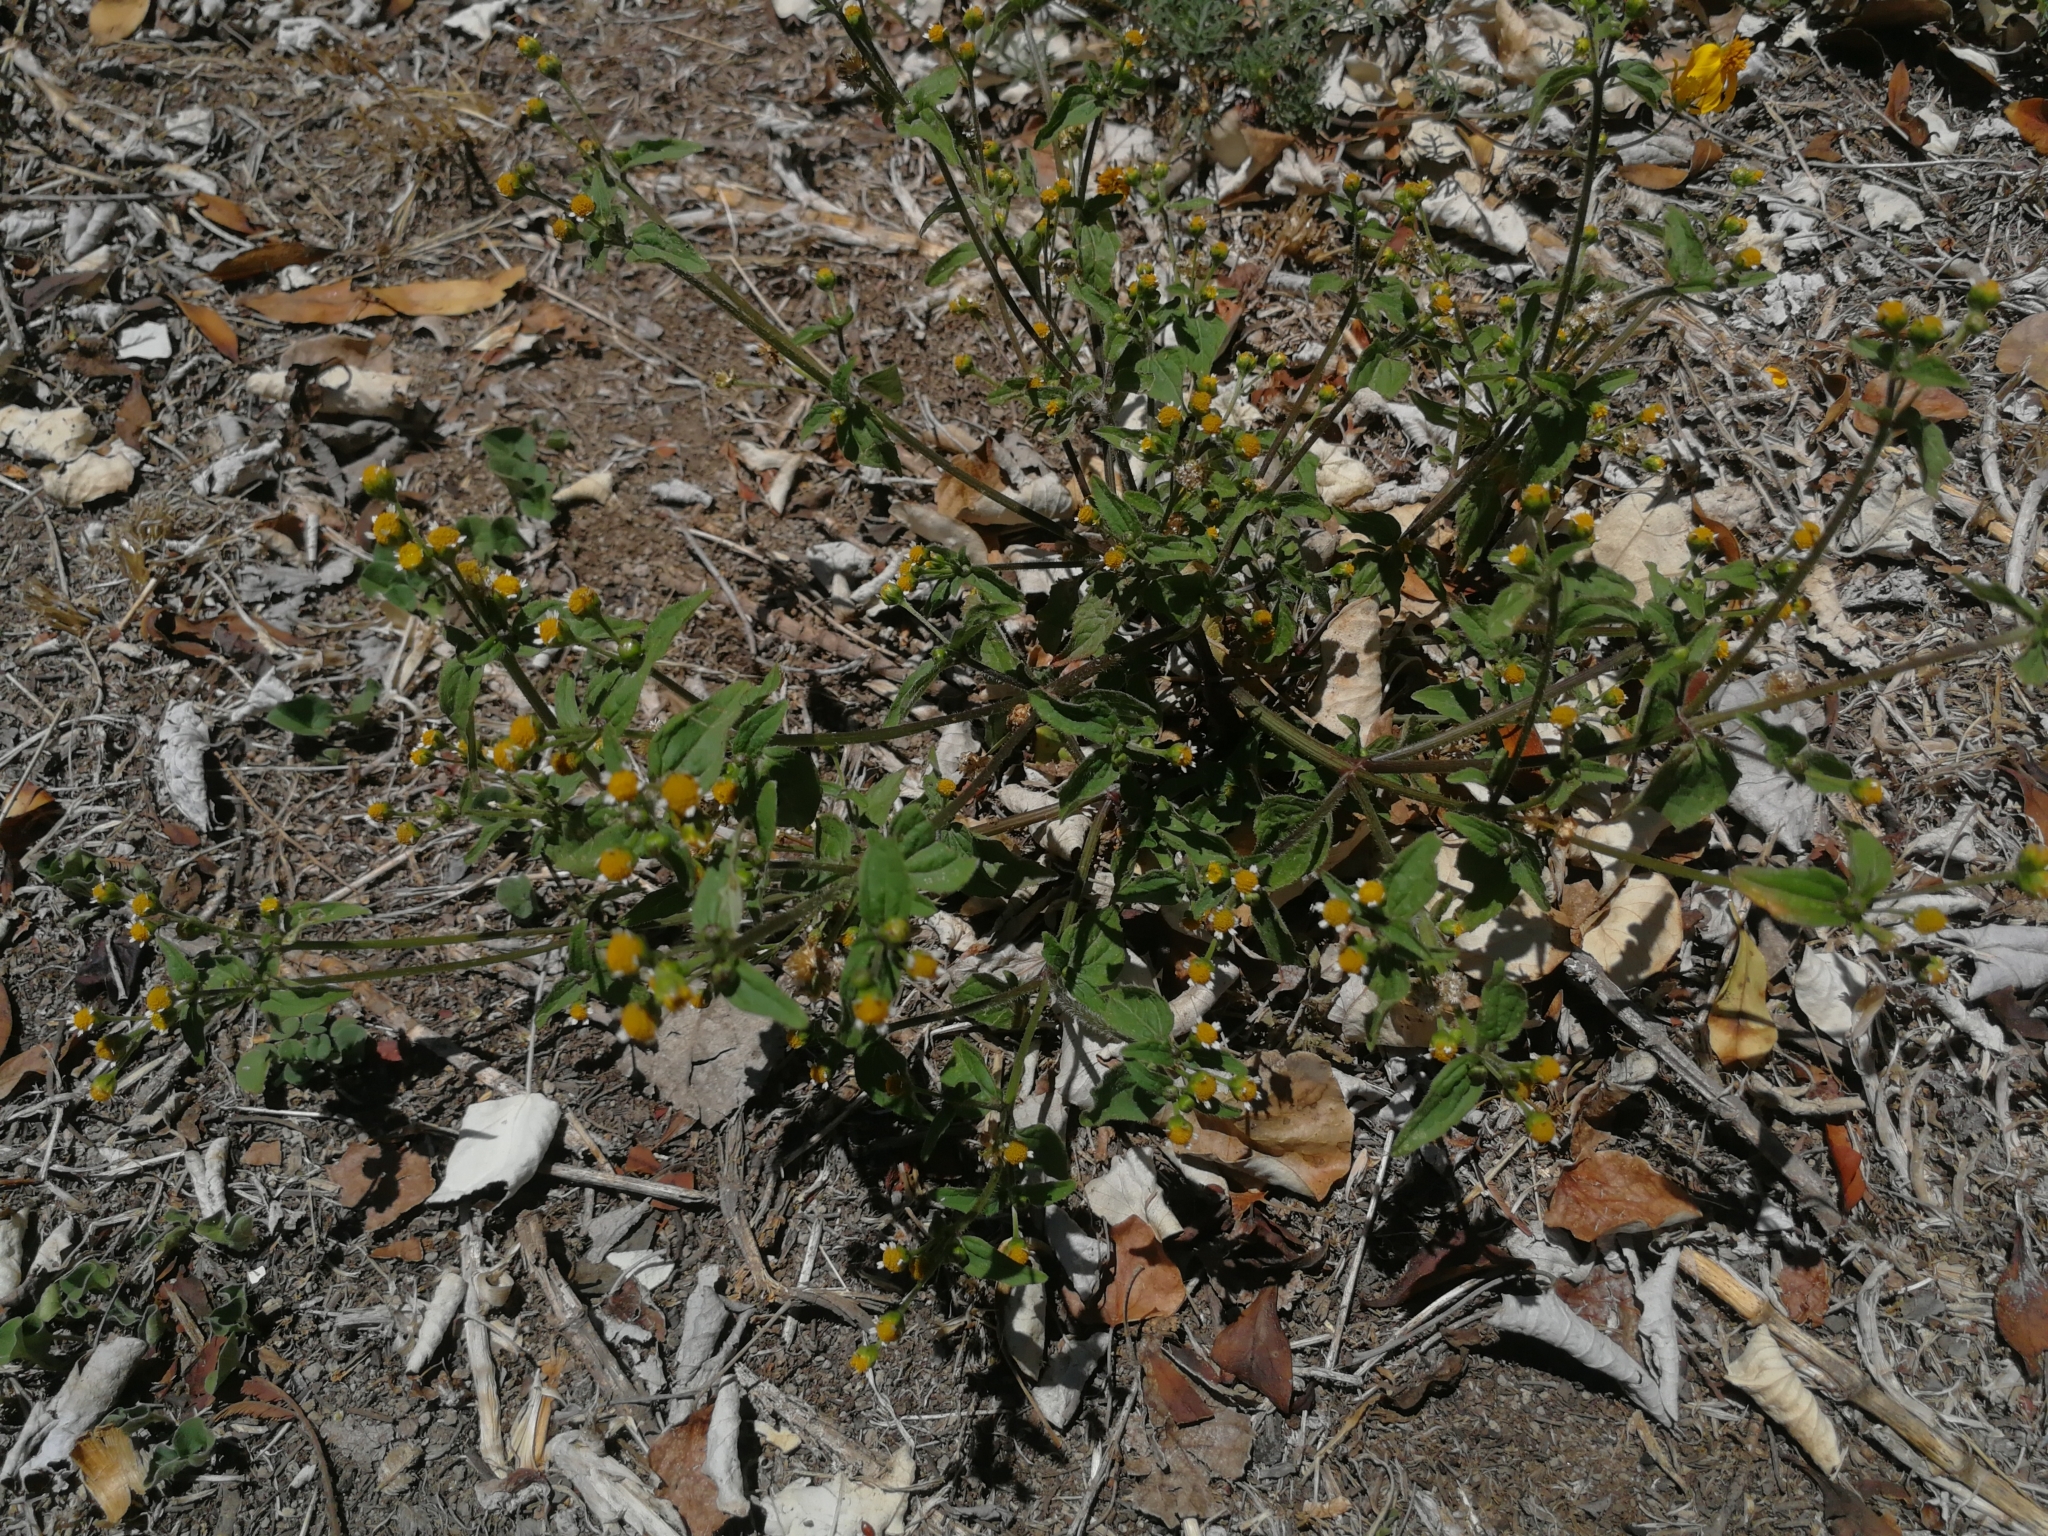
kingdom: Plantae
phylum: Tracheophyta
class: Magnoliopsida
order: Asterales
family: Asteraceae
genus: Galinsoga
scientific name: Galinsoga parviflora
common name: Gallant soldier
